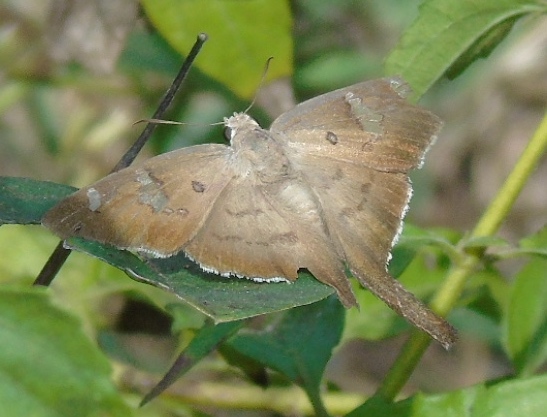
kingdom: Animalia
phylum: Arthropoda
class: Insecta
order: Lepidoptera
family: Hesperiidae
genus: Ectomis
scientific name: Ectomis
